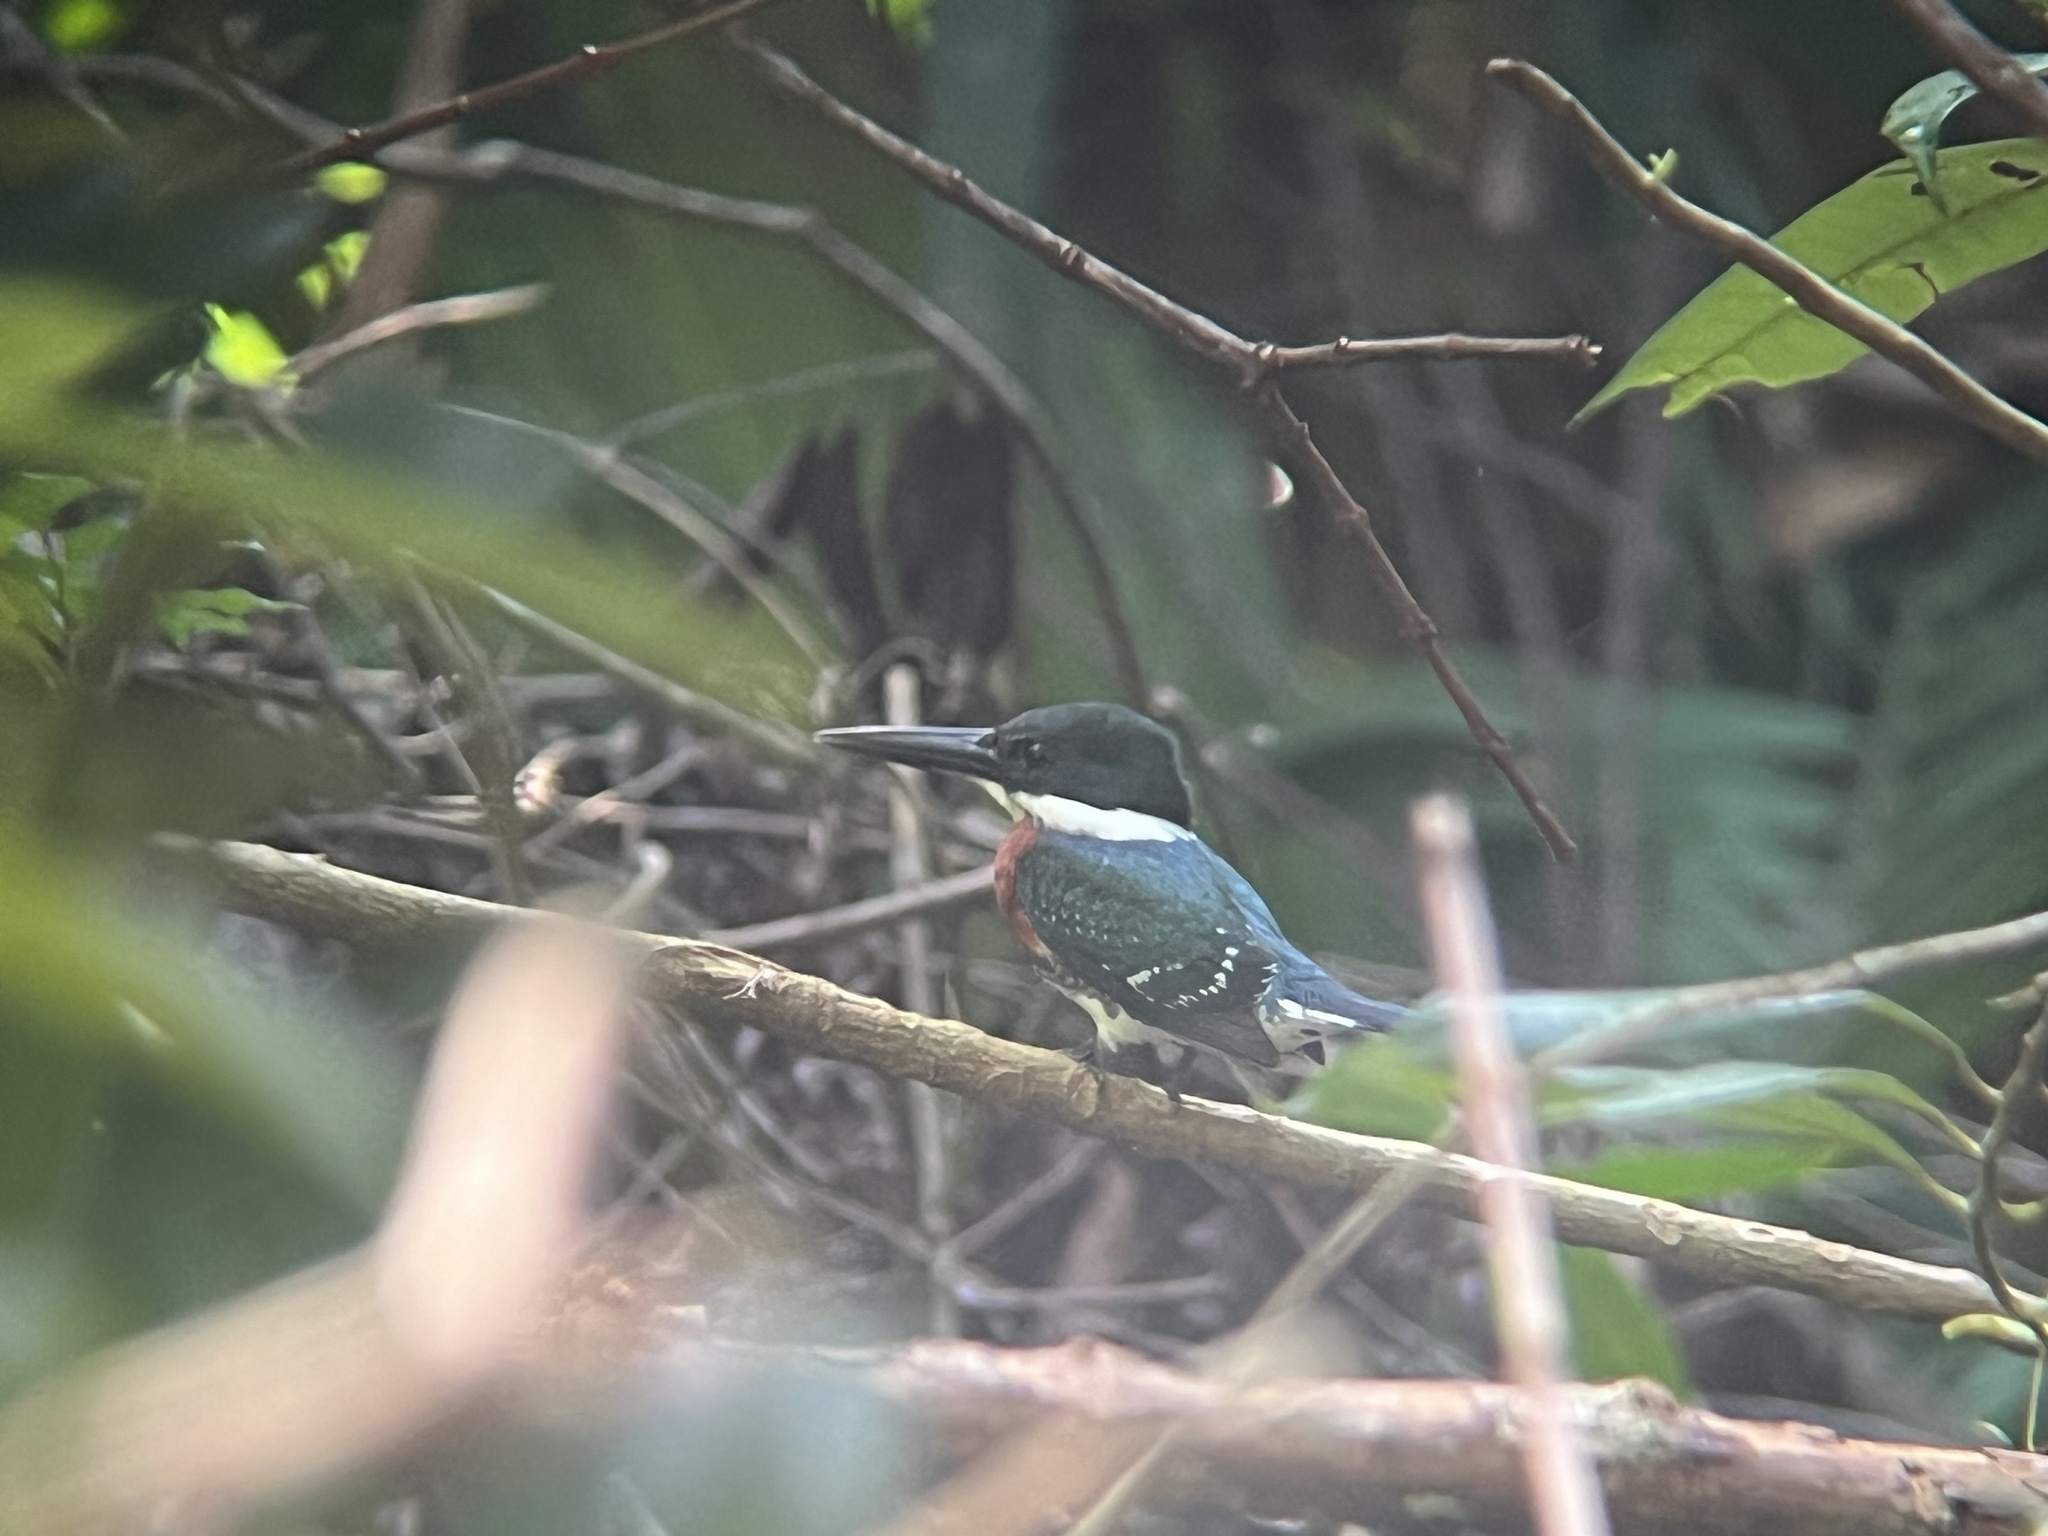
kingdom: Animalia
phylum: Chordata
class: Aves
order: Coraciiformes
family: Alcedinidae
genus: Chloroceryle
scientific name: Chloroceryle americana
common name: Green kingfisher
